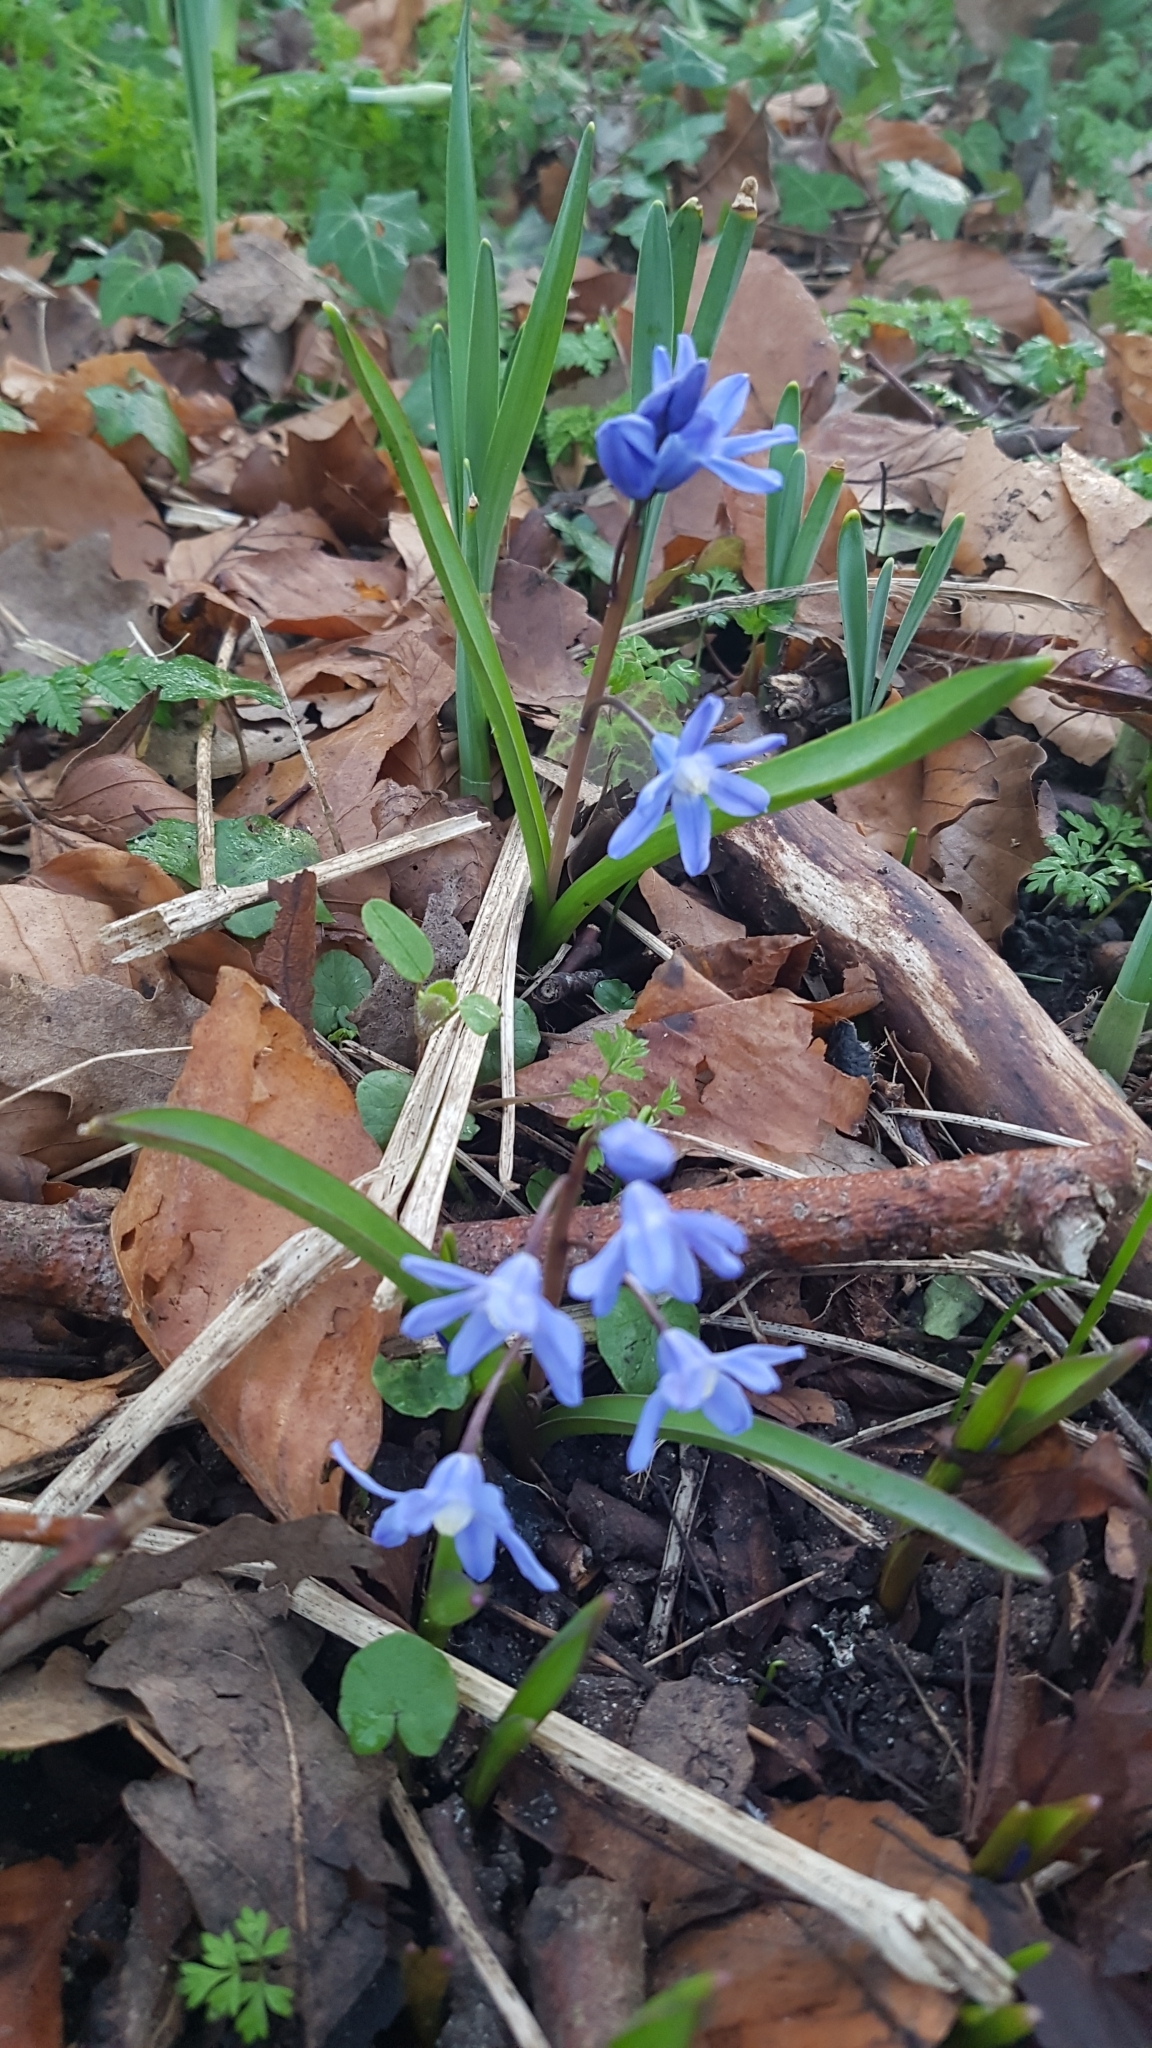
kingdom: Plantae
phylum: Tracheophyta
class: Liliopsida
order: Asparagales
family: Asparagaceae
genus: Scilla
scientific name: Scilla forbesii
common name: Glory-of-the-snow
